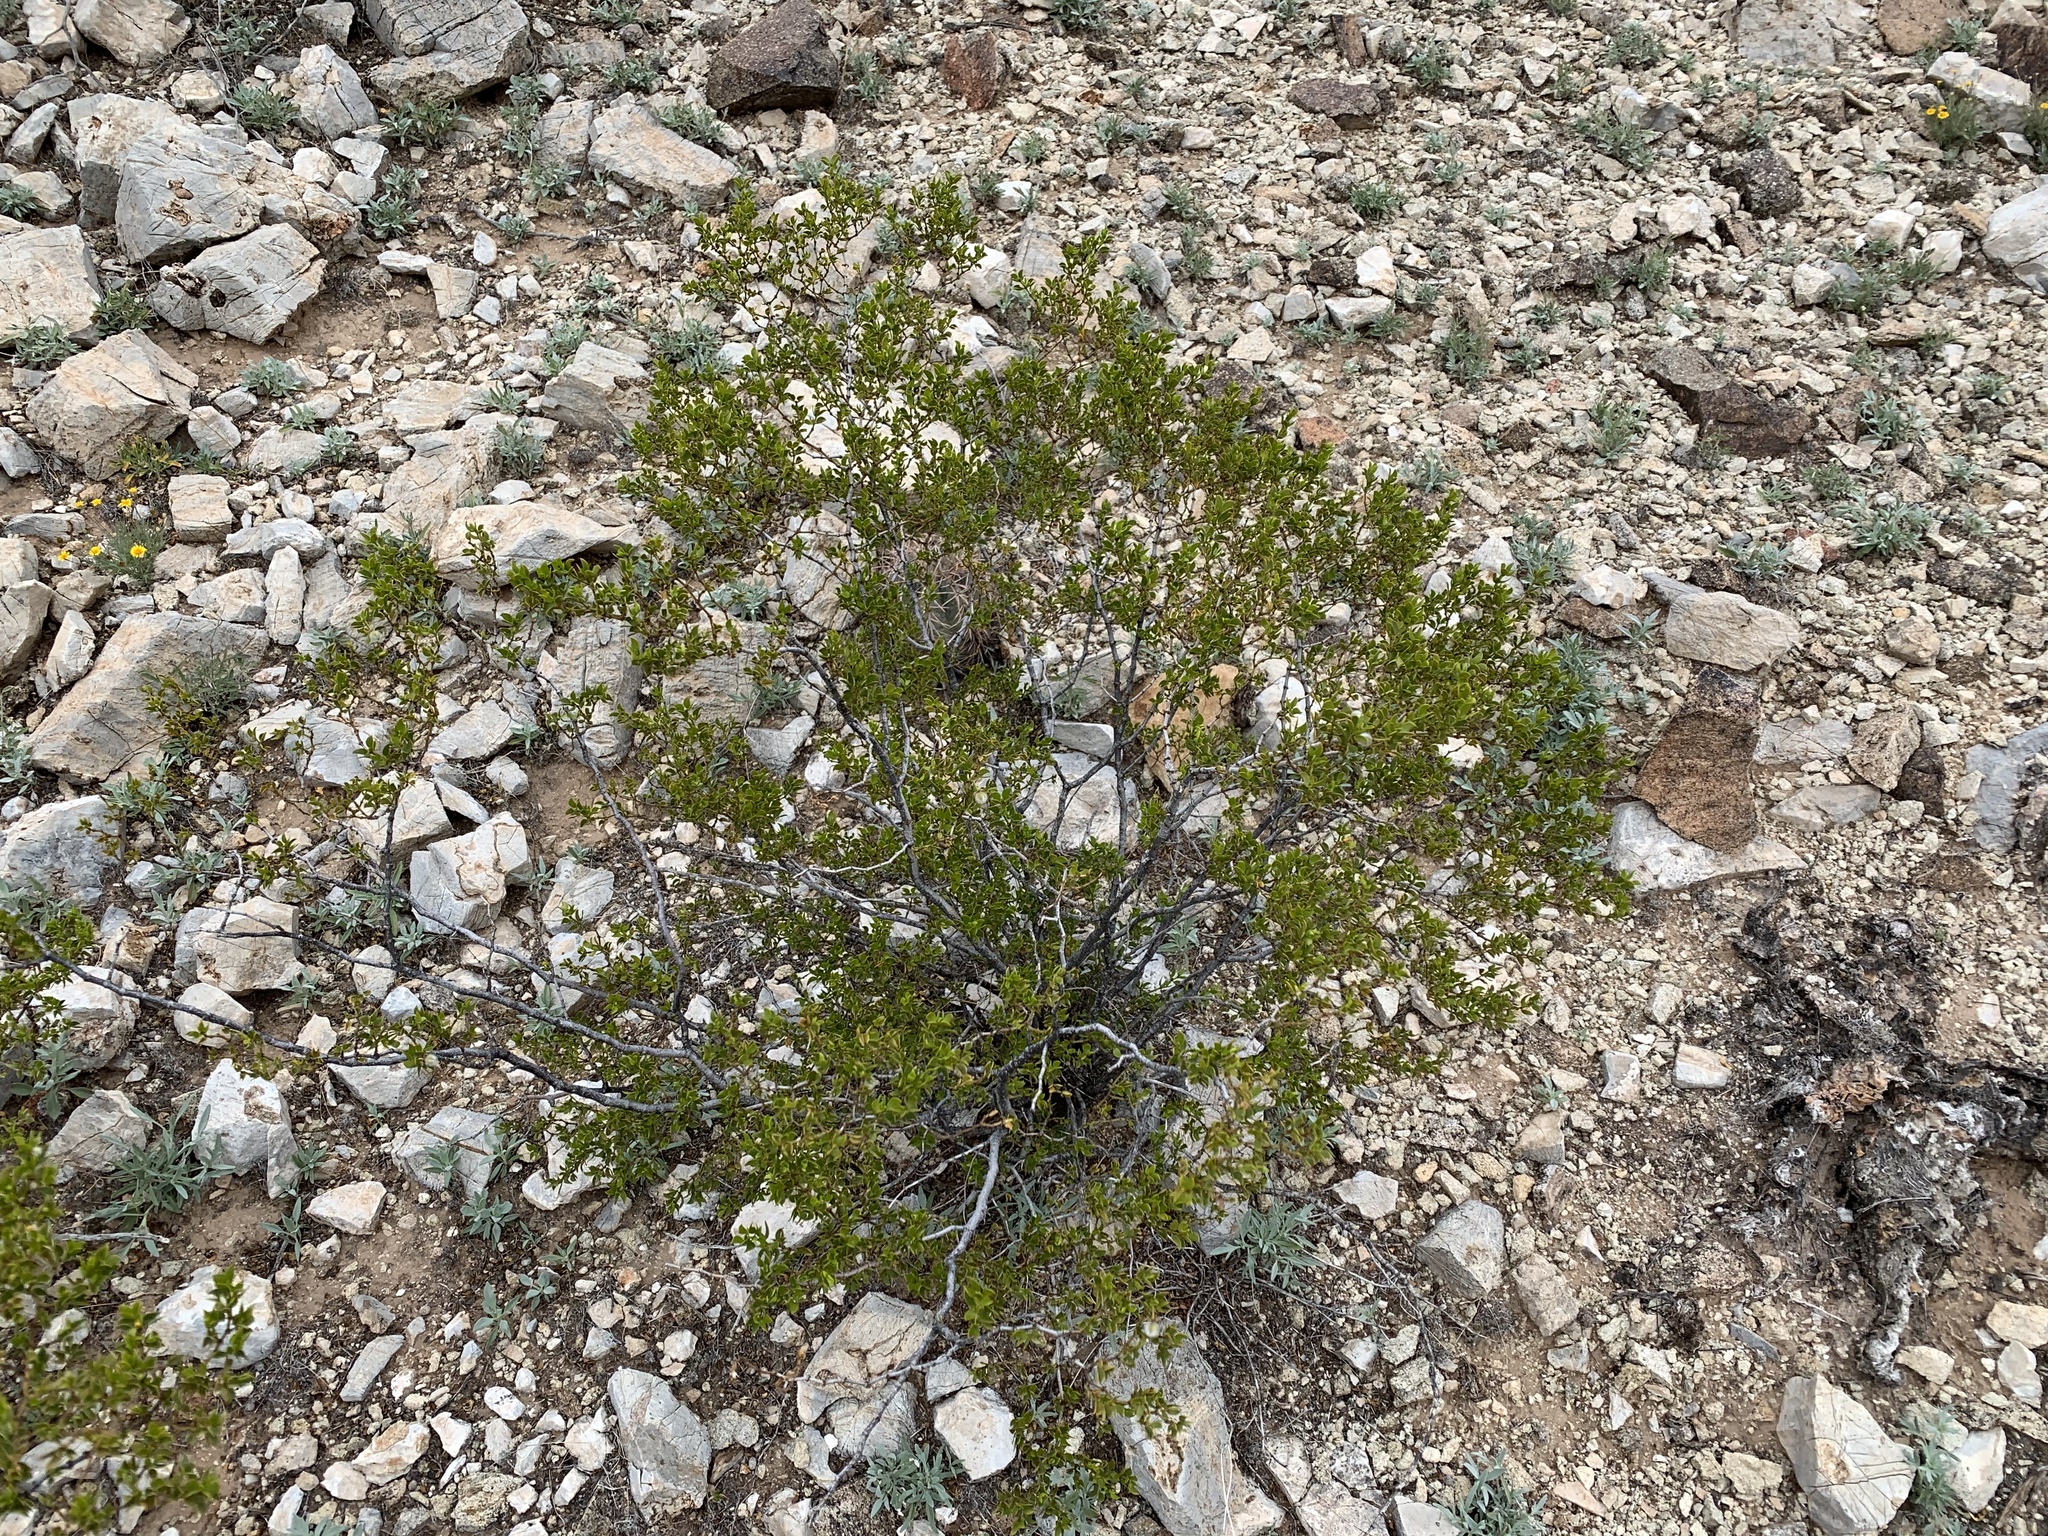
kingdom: Plantae
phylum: Tracheophyta
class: Magnoliopsida
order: Zygophyllales
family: Zygophyllaceae
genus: Larrea
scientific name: Larrea tridentata
